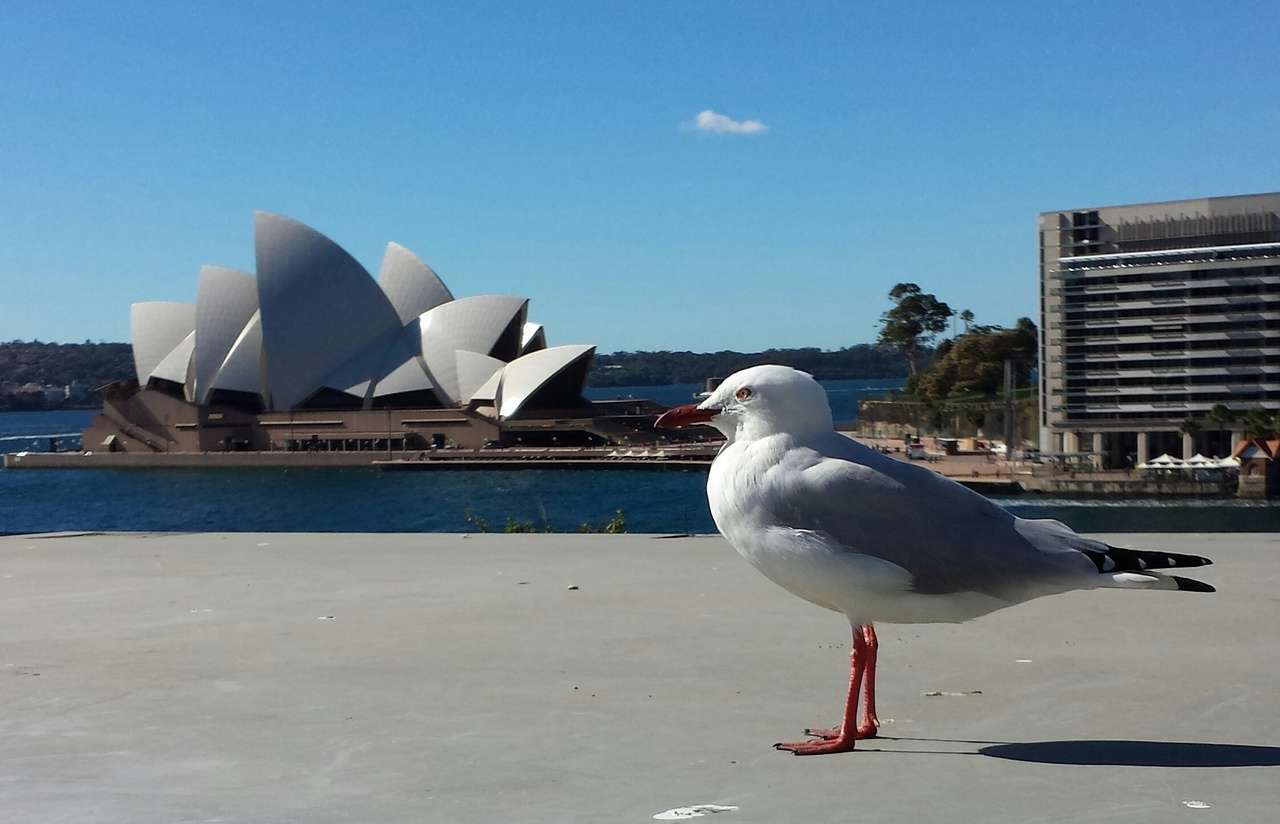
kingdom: Animalia
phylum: Chordata
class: Aves
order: Charadriiformes
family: Laridae
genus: Chroicocephalus
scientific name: Chroicocephalus novaehollandiae
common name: Silver gull
